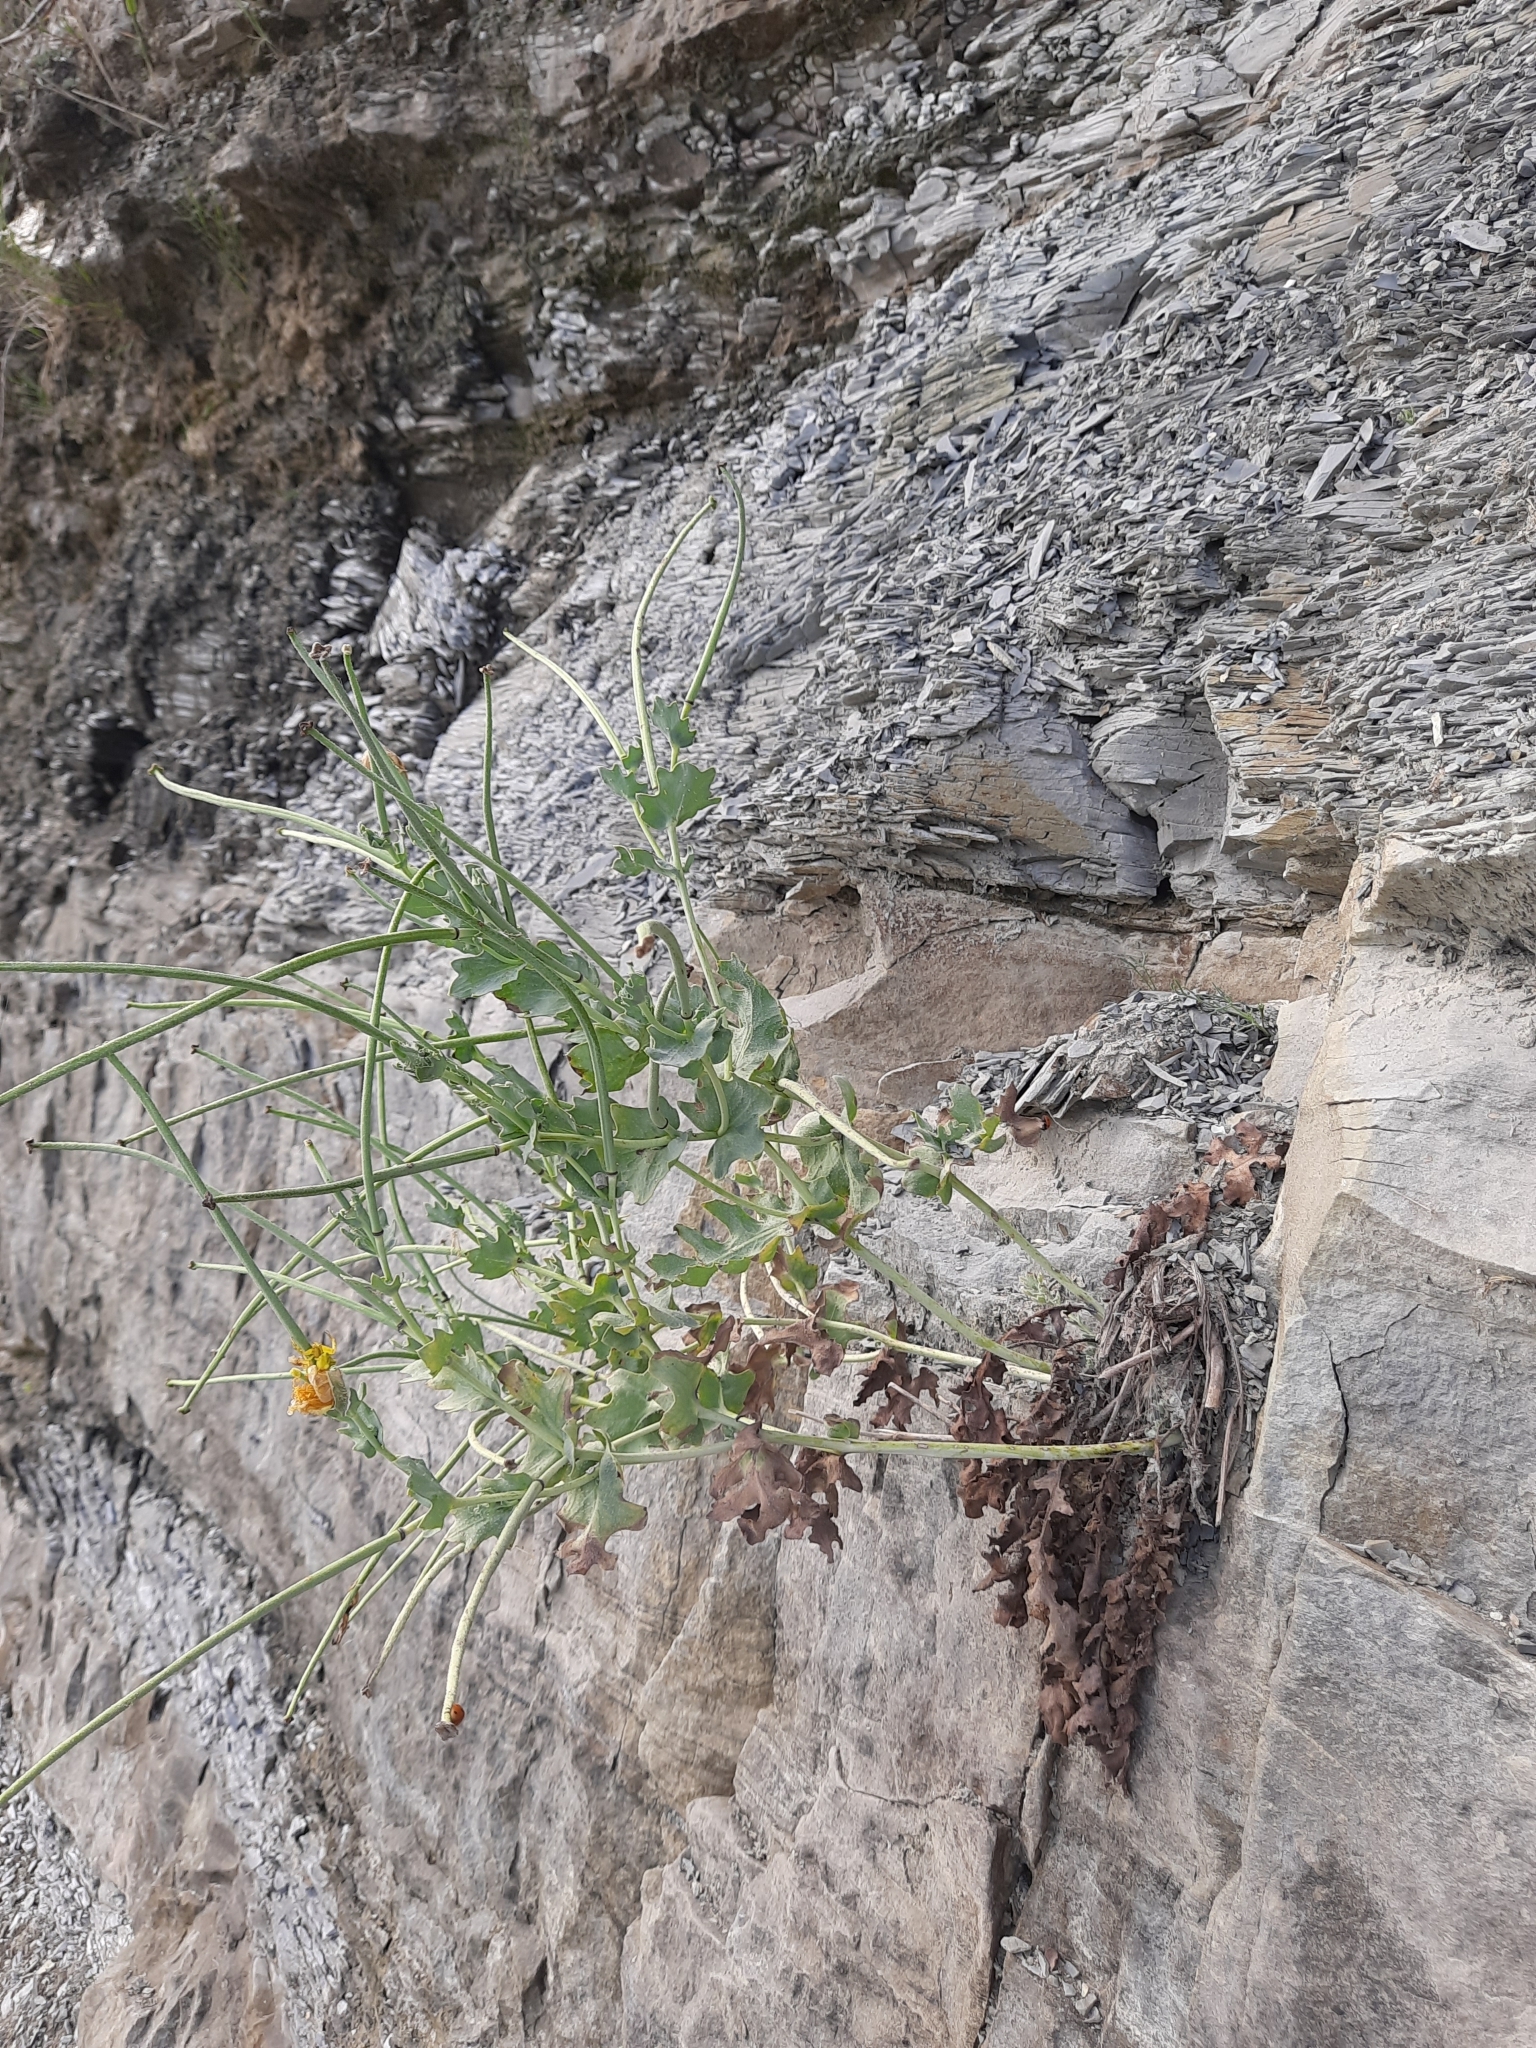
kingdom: Plantae
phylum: Tracheophyta
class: Magnoliopsida
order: Ranunculales
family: Papaveraceae
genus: Glaucium
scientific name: Glaucium flavum
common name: Yellow horned-poppy
